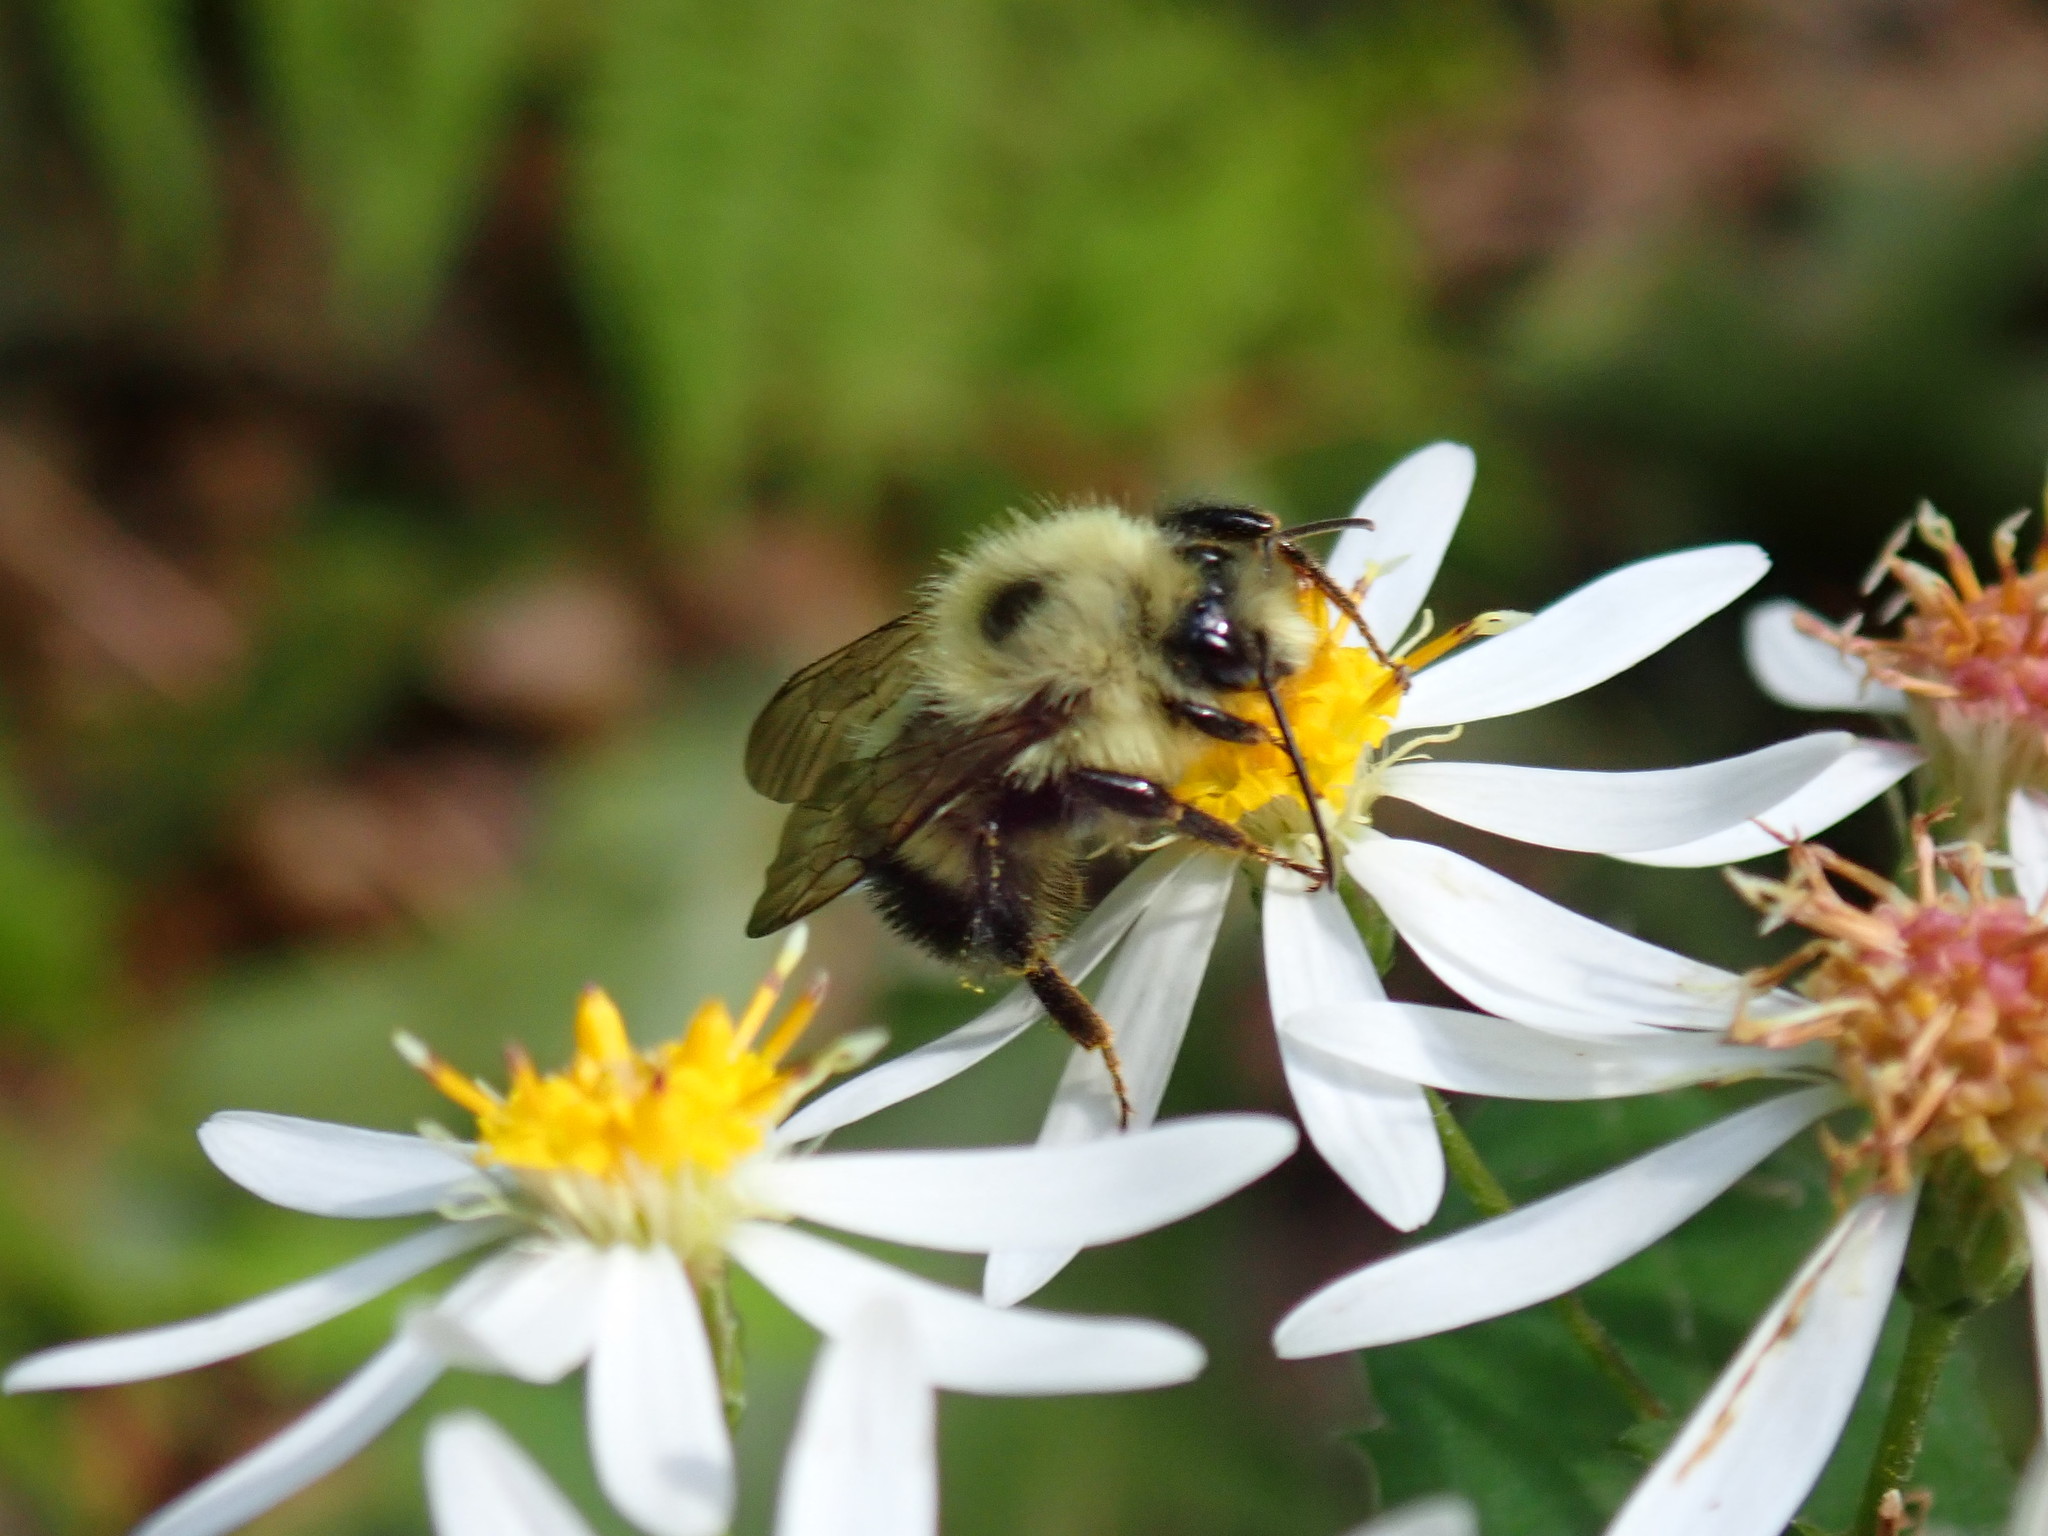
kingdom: Animalia
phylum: Arthropoda
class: Insecta
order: Hymenoptera
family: Apidae
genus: Pyrobombus
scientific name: Pyrobombus
